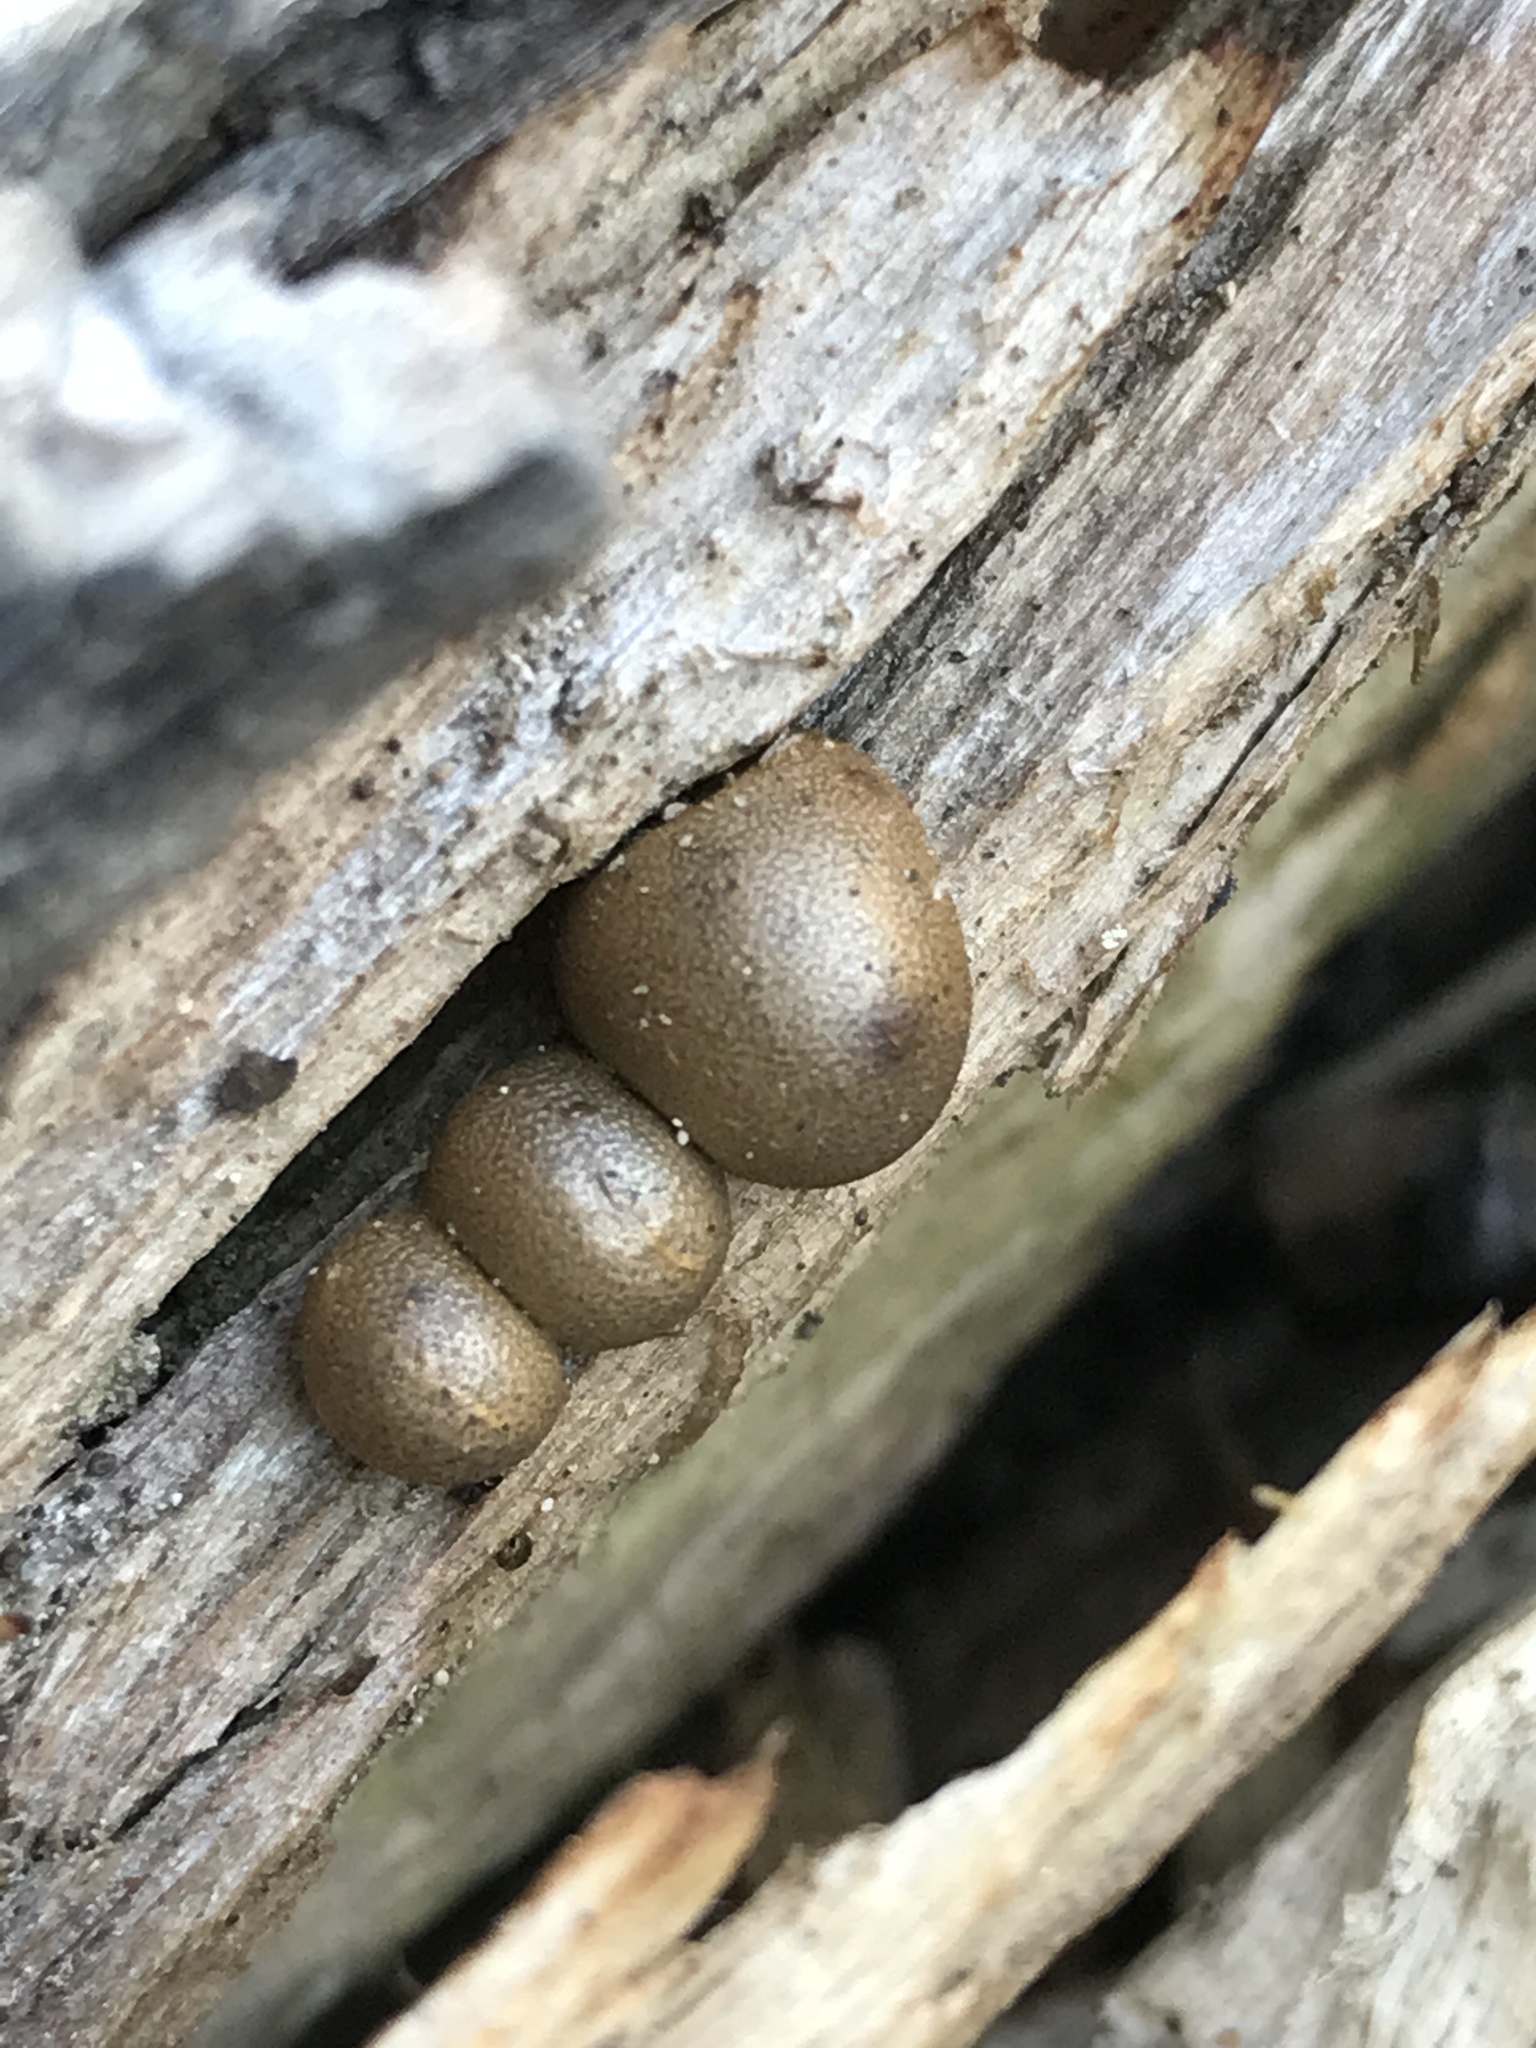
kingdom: Protozoa
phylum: Mycetozoa
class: Myxomycetes
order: Cribrariales
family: Tubiferaceae
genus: Lycogala
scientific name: Lycogala epidendrum
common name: Wolf's milk
